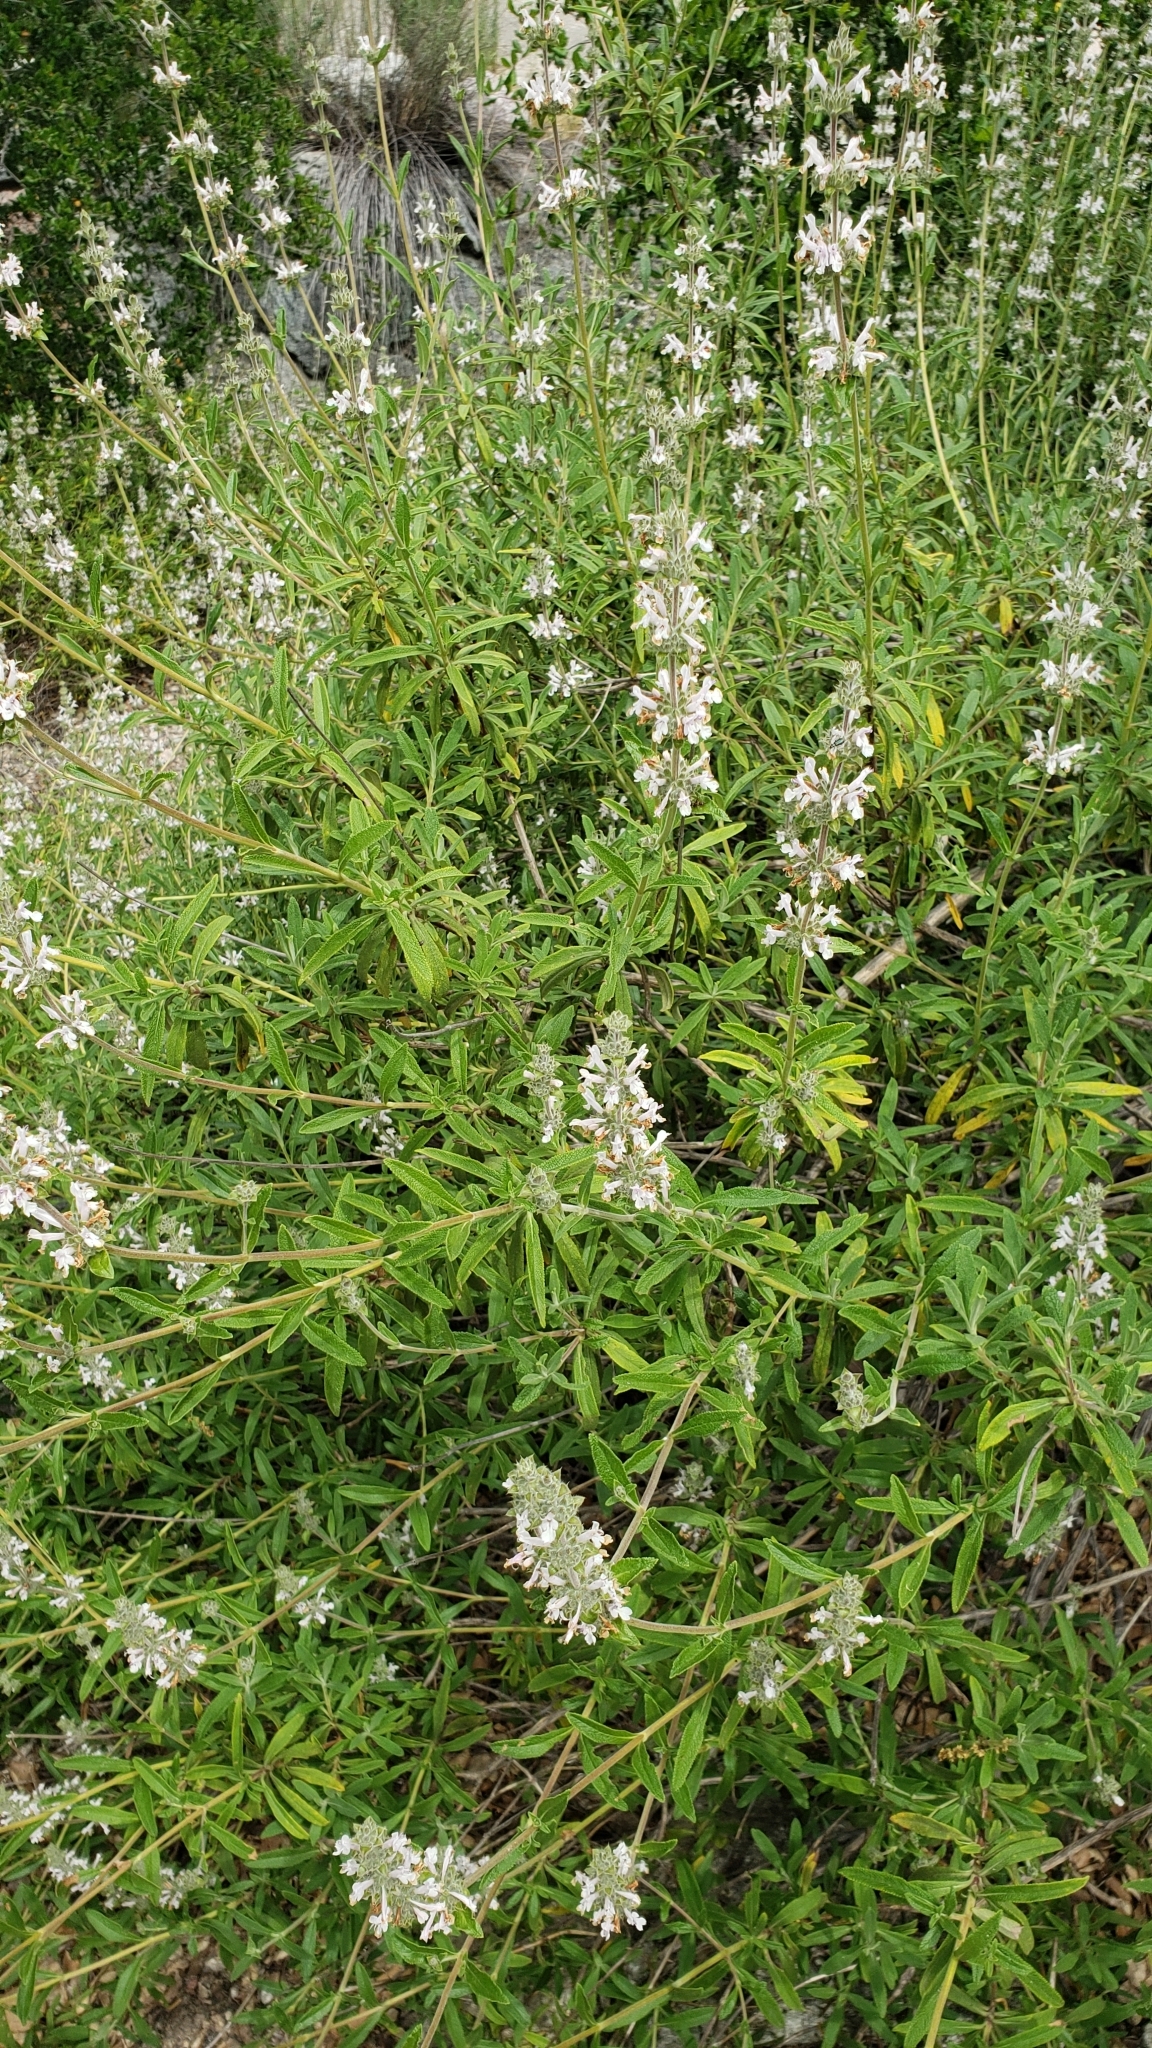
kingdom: Plantae
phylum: Tracheophyta
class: Magnoliopsida
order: Lamiales
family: Lamiaceae
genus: Salvia
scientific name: Salvia mellifera
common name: Black sage
